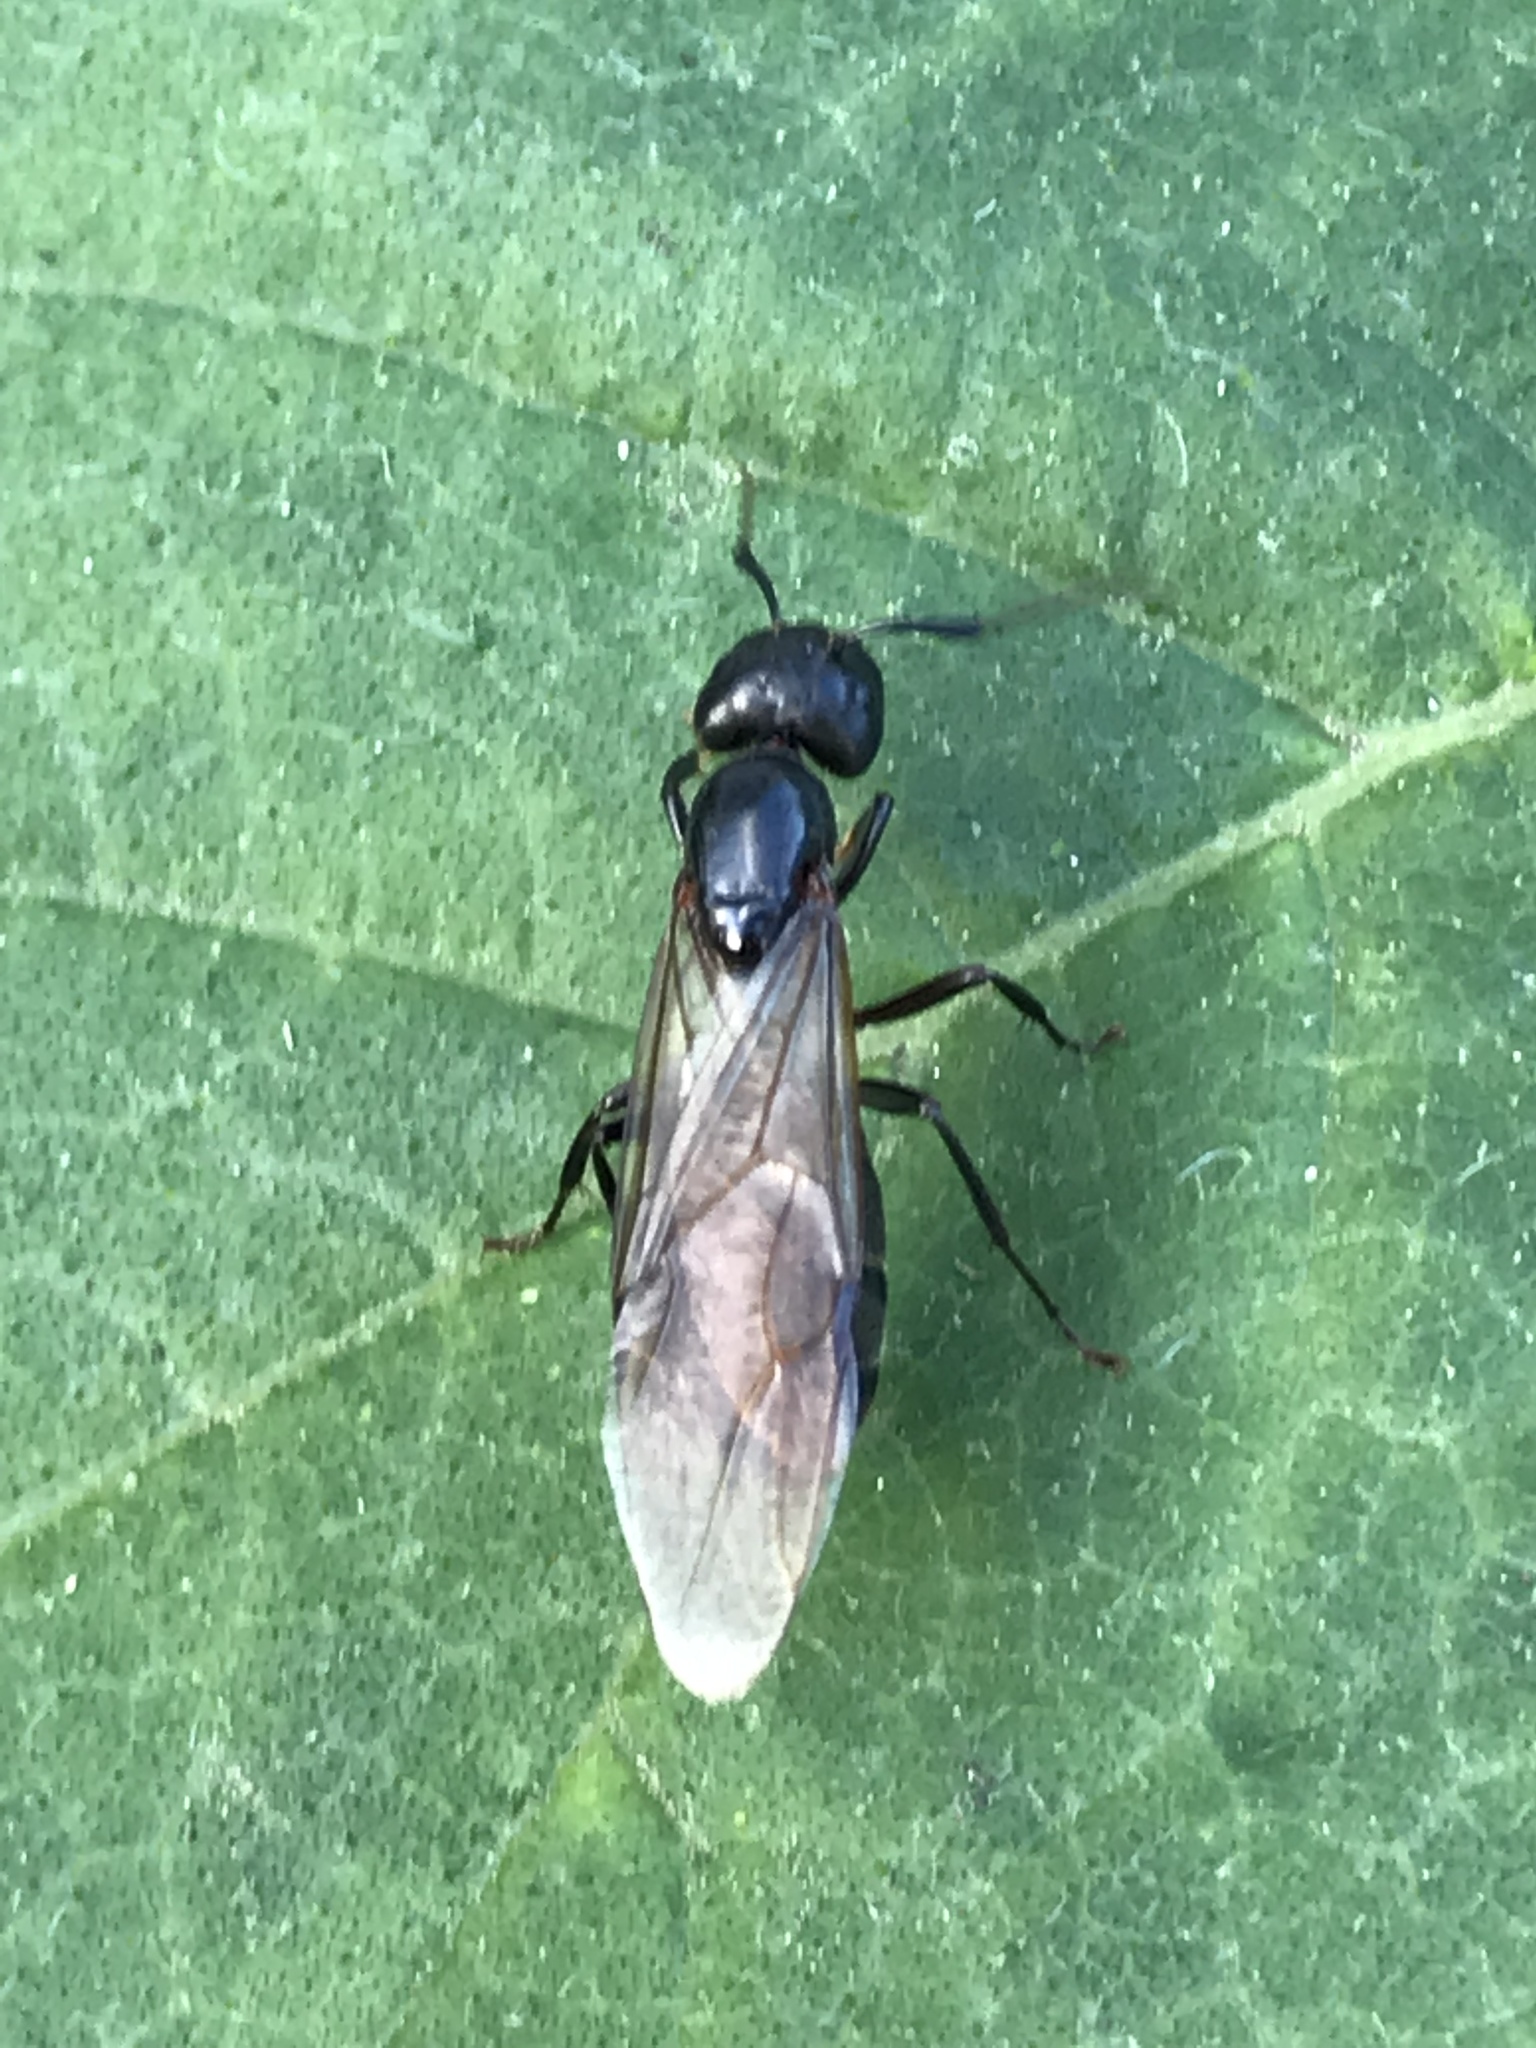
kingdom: Animalia
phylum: Arthropoda
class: Insecta
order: Hymenoptera
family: Formicidae
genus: Camponotus
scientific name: Camponotus pennsylvanicus
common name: Black carpenter ant
